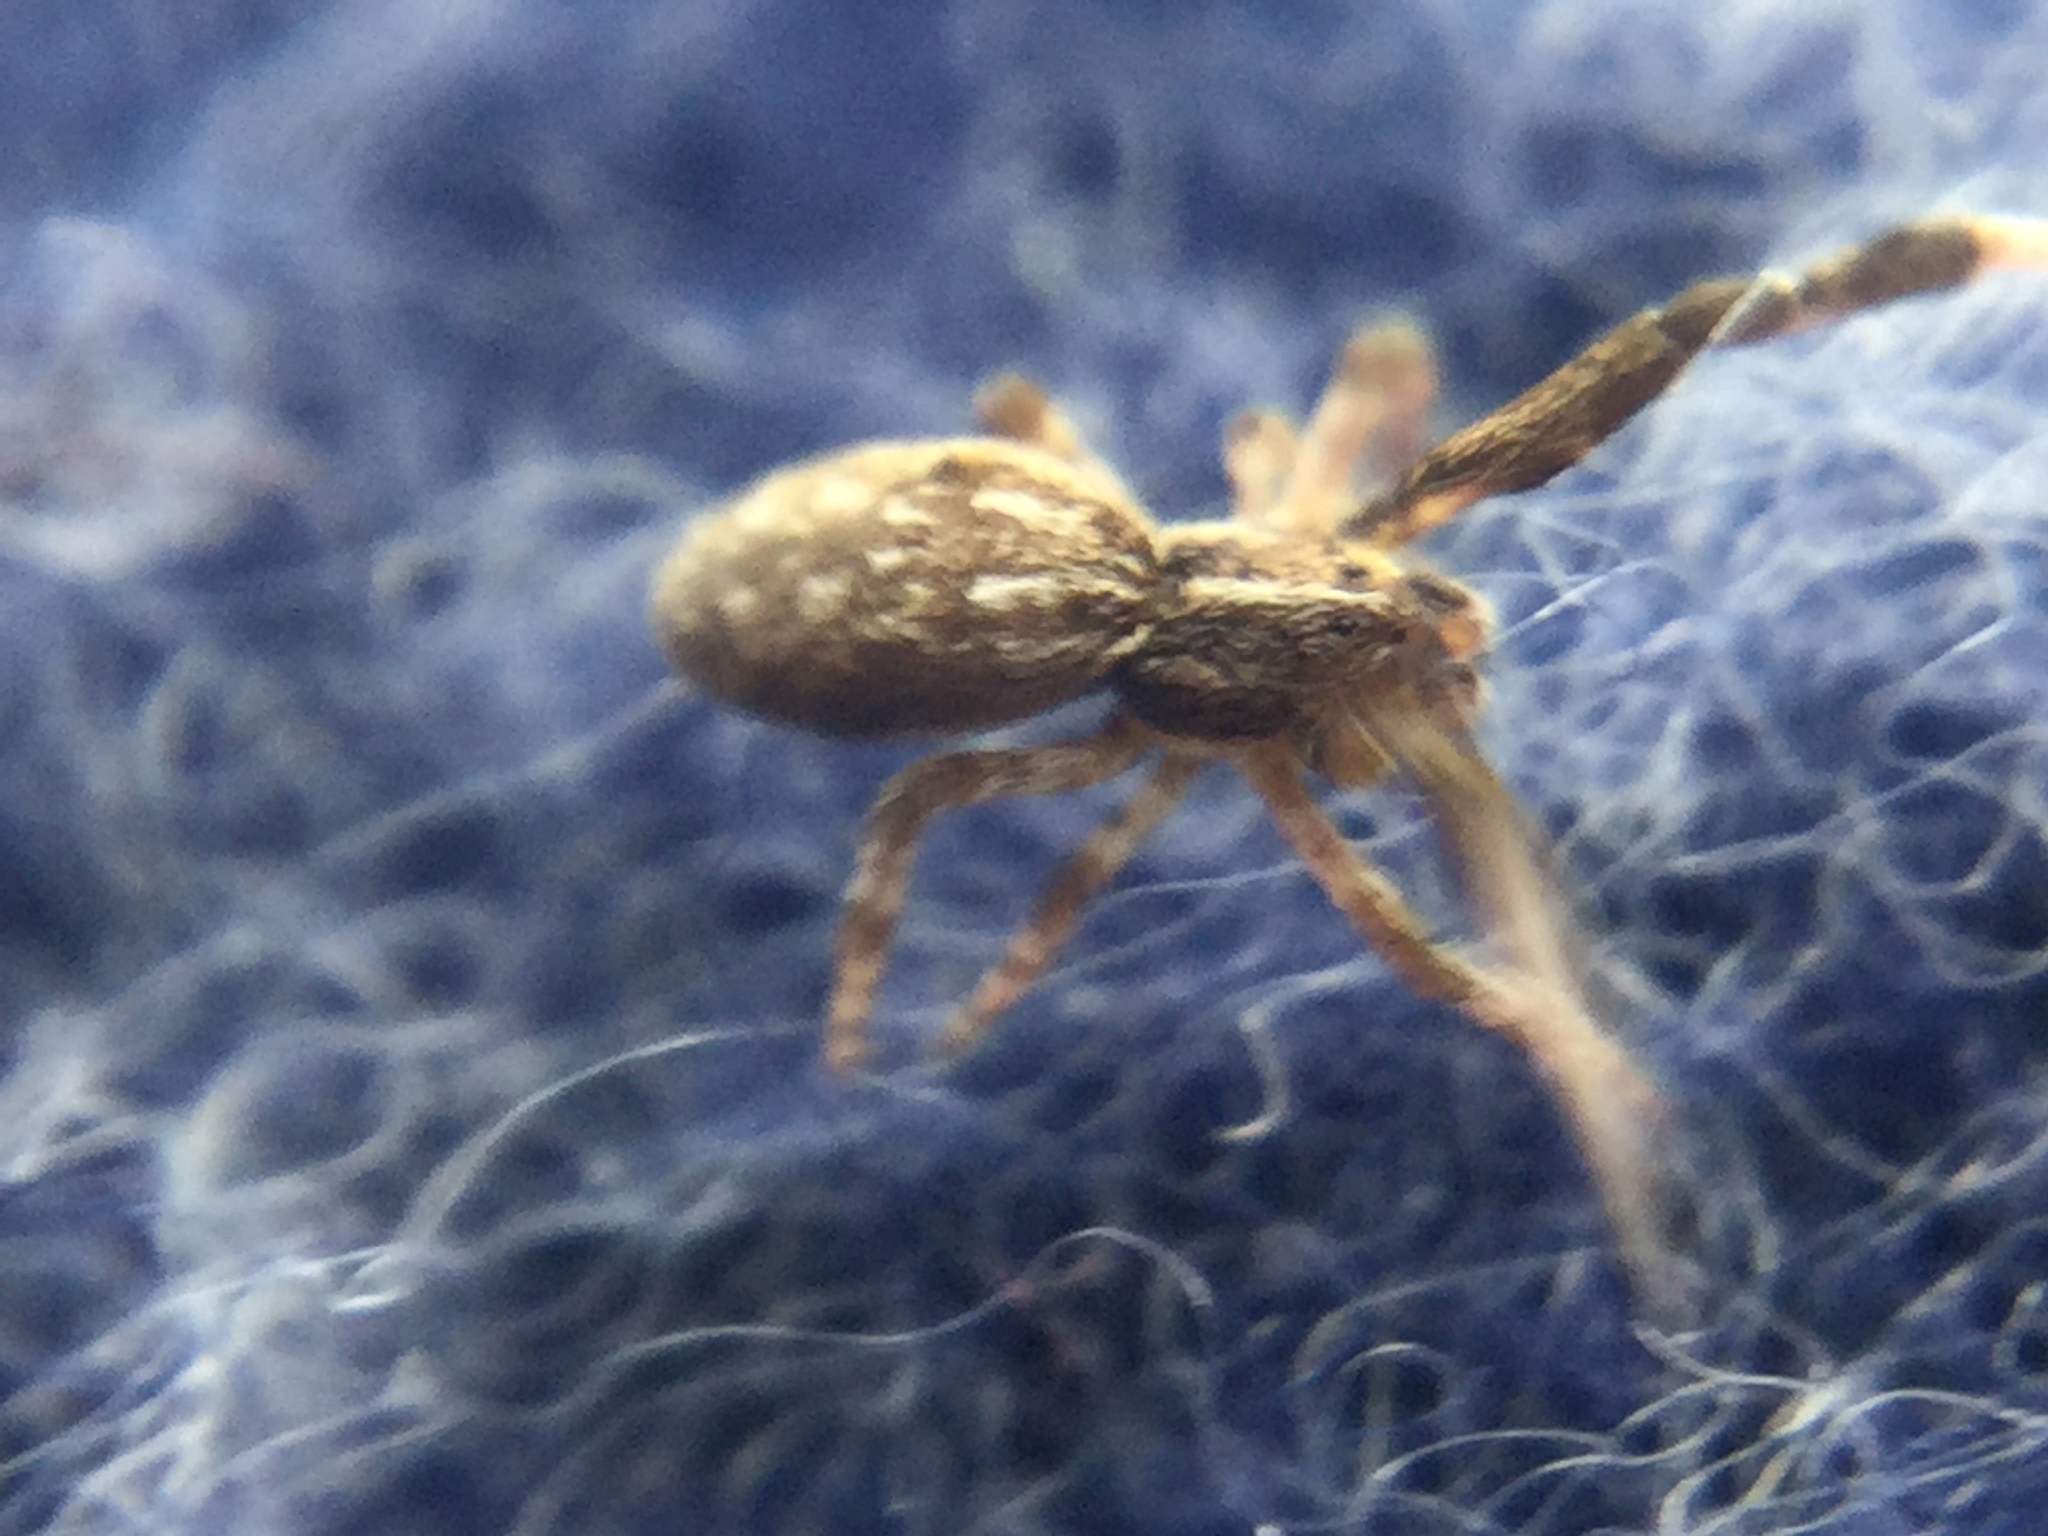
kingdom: Animalia
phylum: Arthropoda
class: Arachnida
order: Araneae
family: Uloboridae
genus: Uloborus
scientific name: Uloborus glomosus
